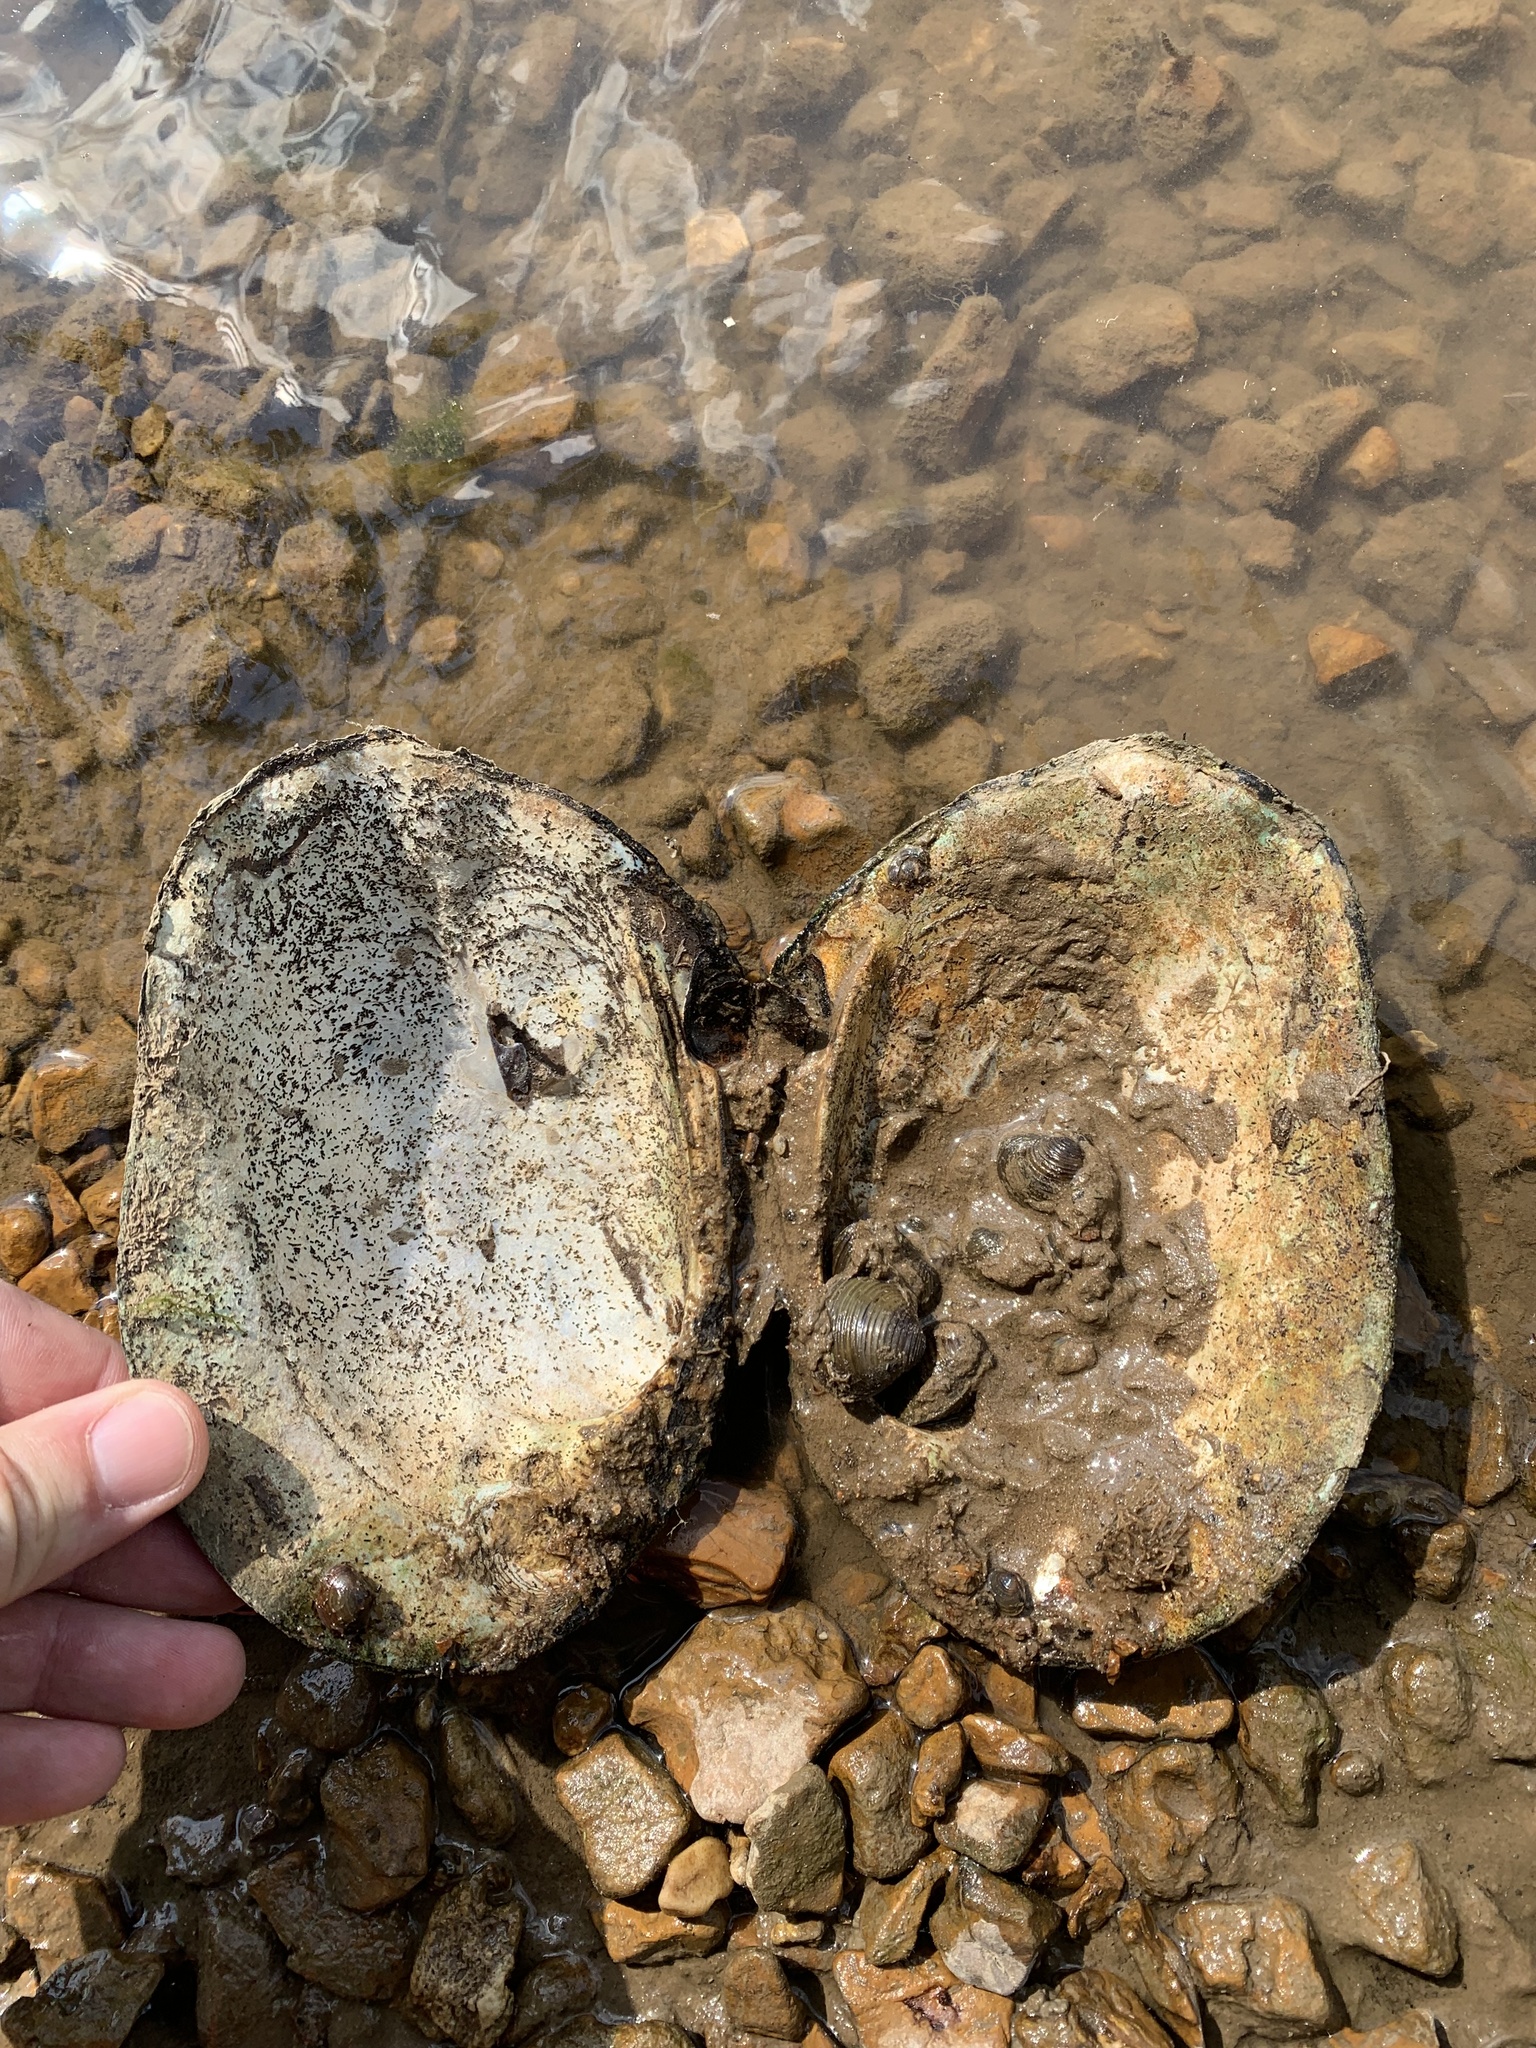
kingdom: Animalia
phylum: Mollusca
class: Bivalvia
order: Unionida
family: Unionidae
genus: Megalonaias
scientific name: Megalonaias nervosa
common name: Washboard
